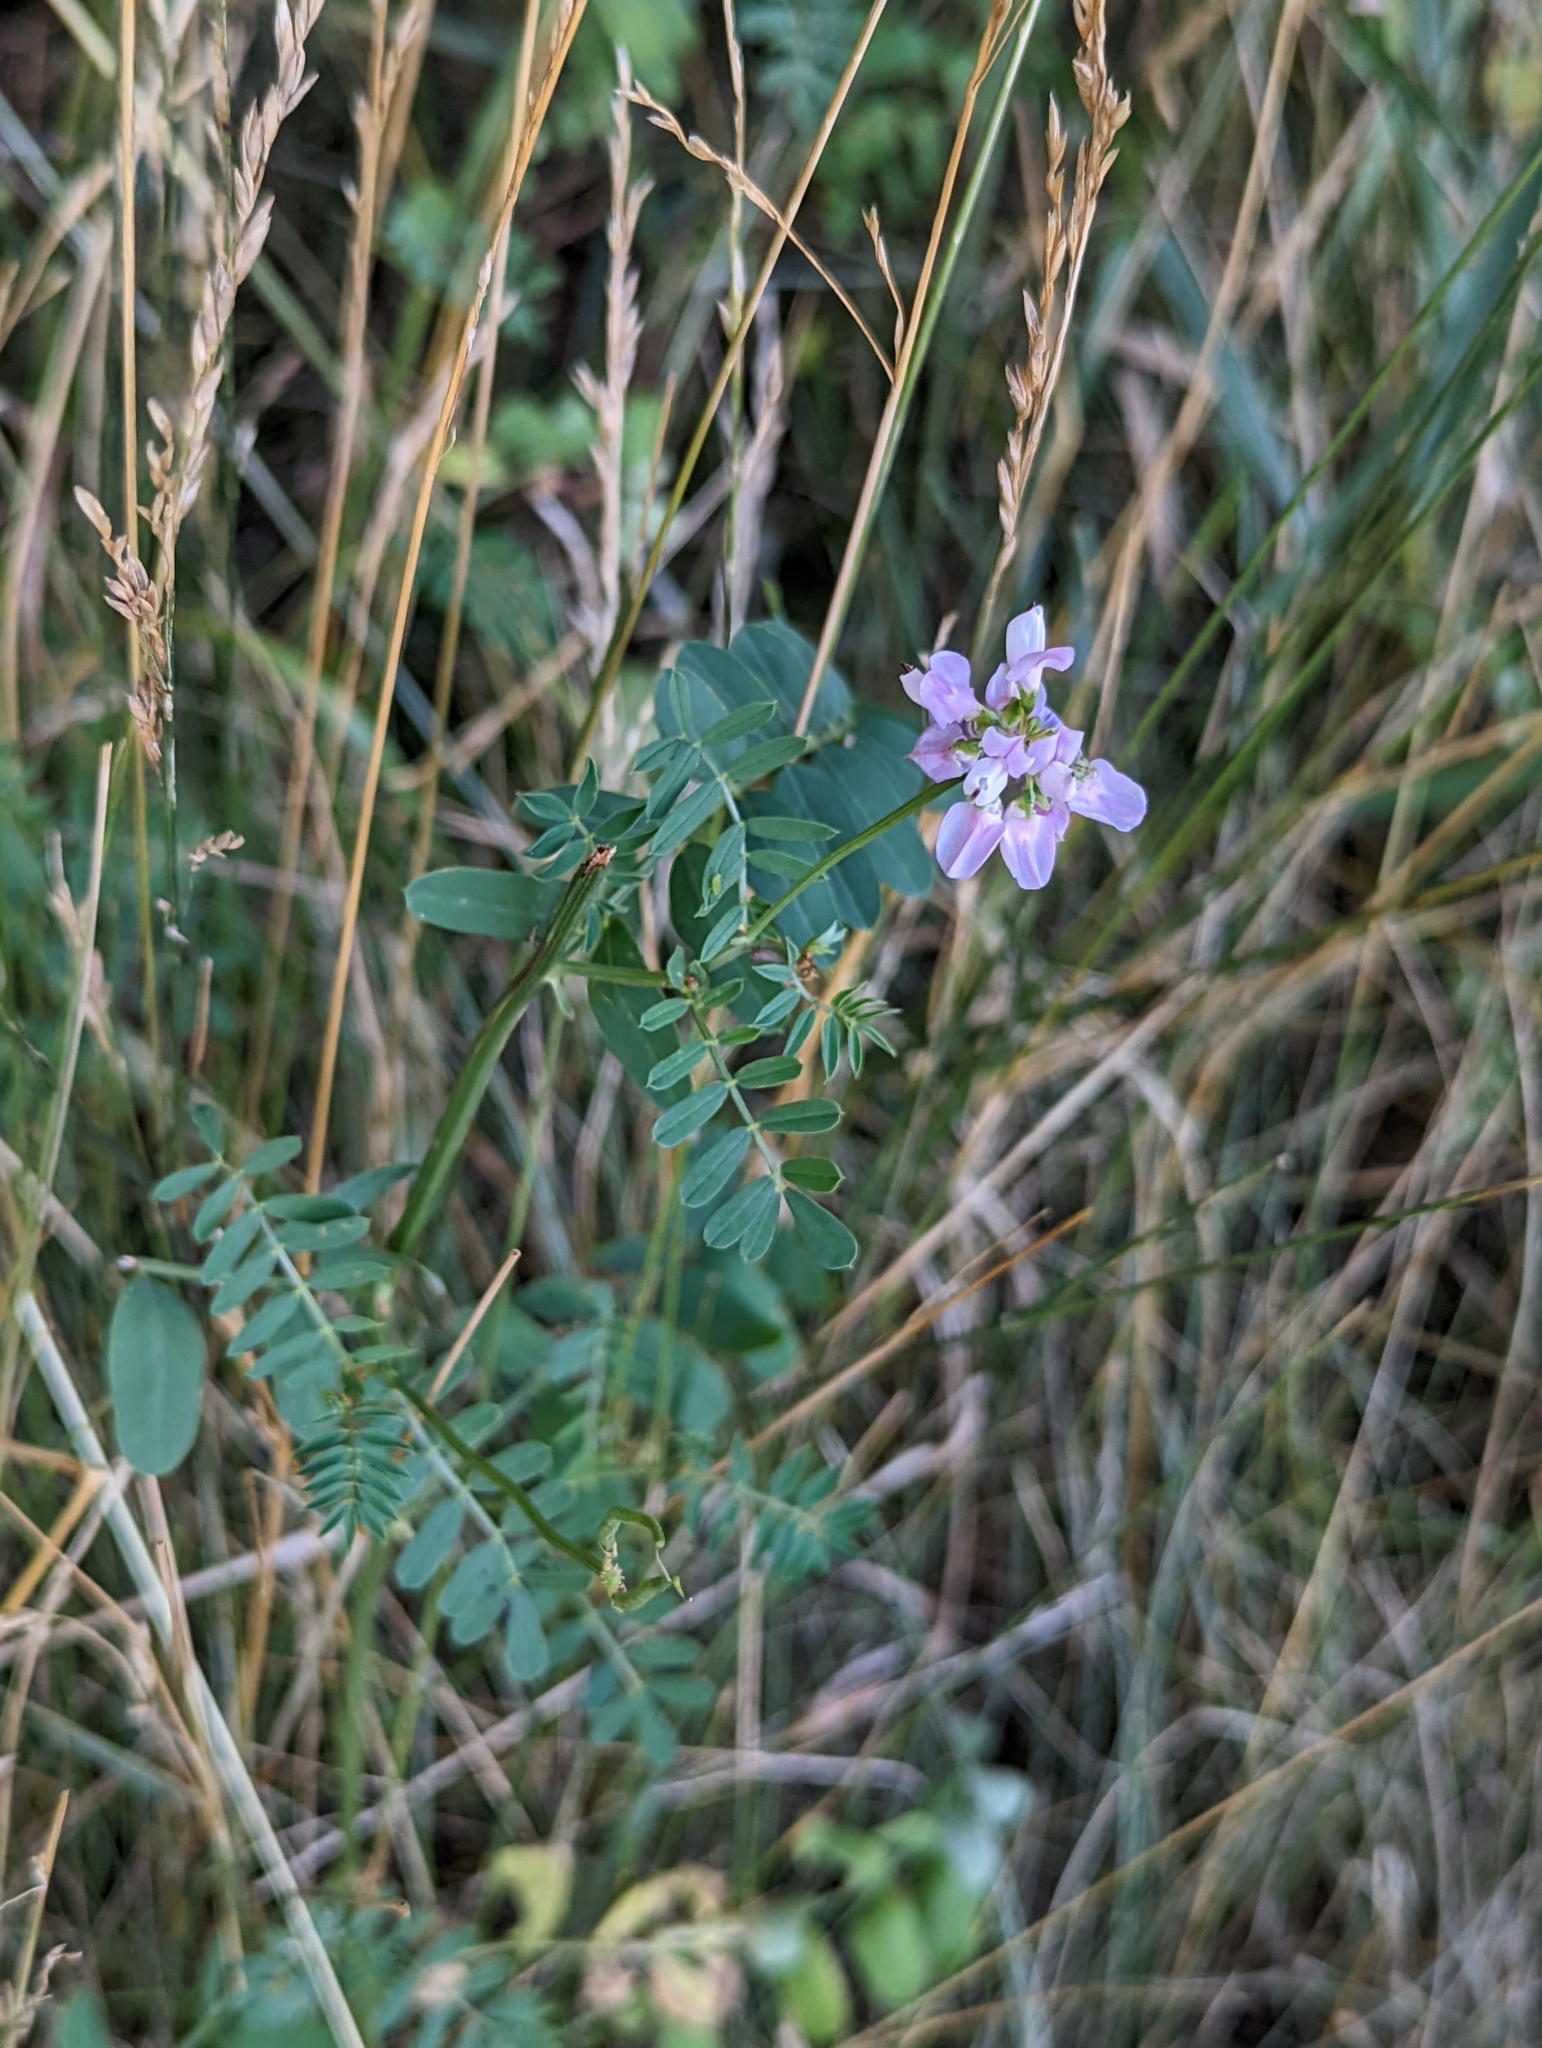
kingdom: Plantae
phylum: Tracheophyta
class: Magnoliopsida
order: Fabales
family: Fabaceae
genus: Coronilla
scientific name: Coronilla varia
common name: Crownvetch
